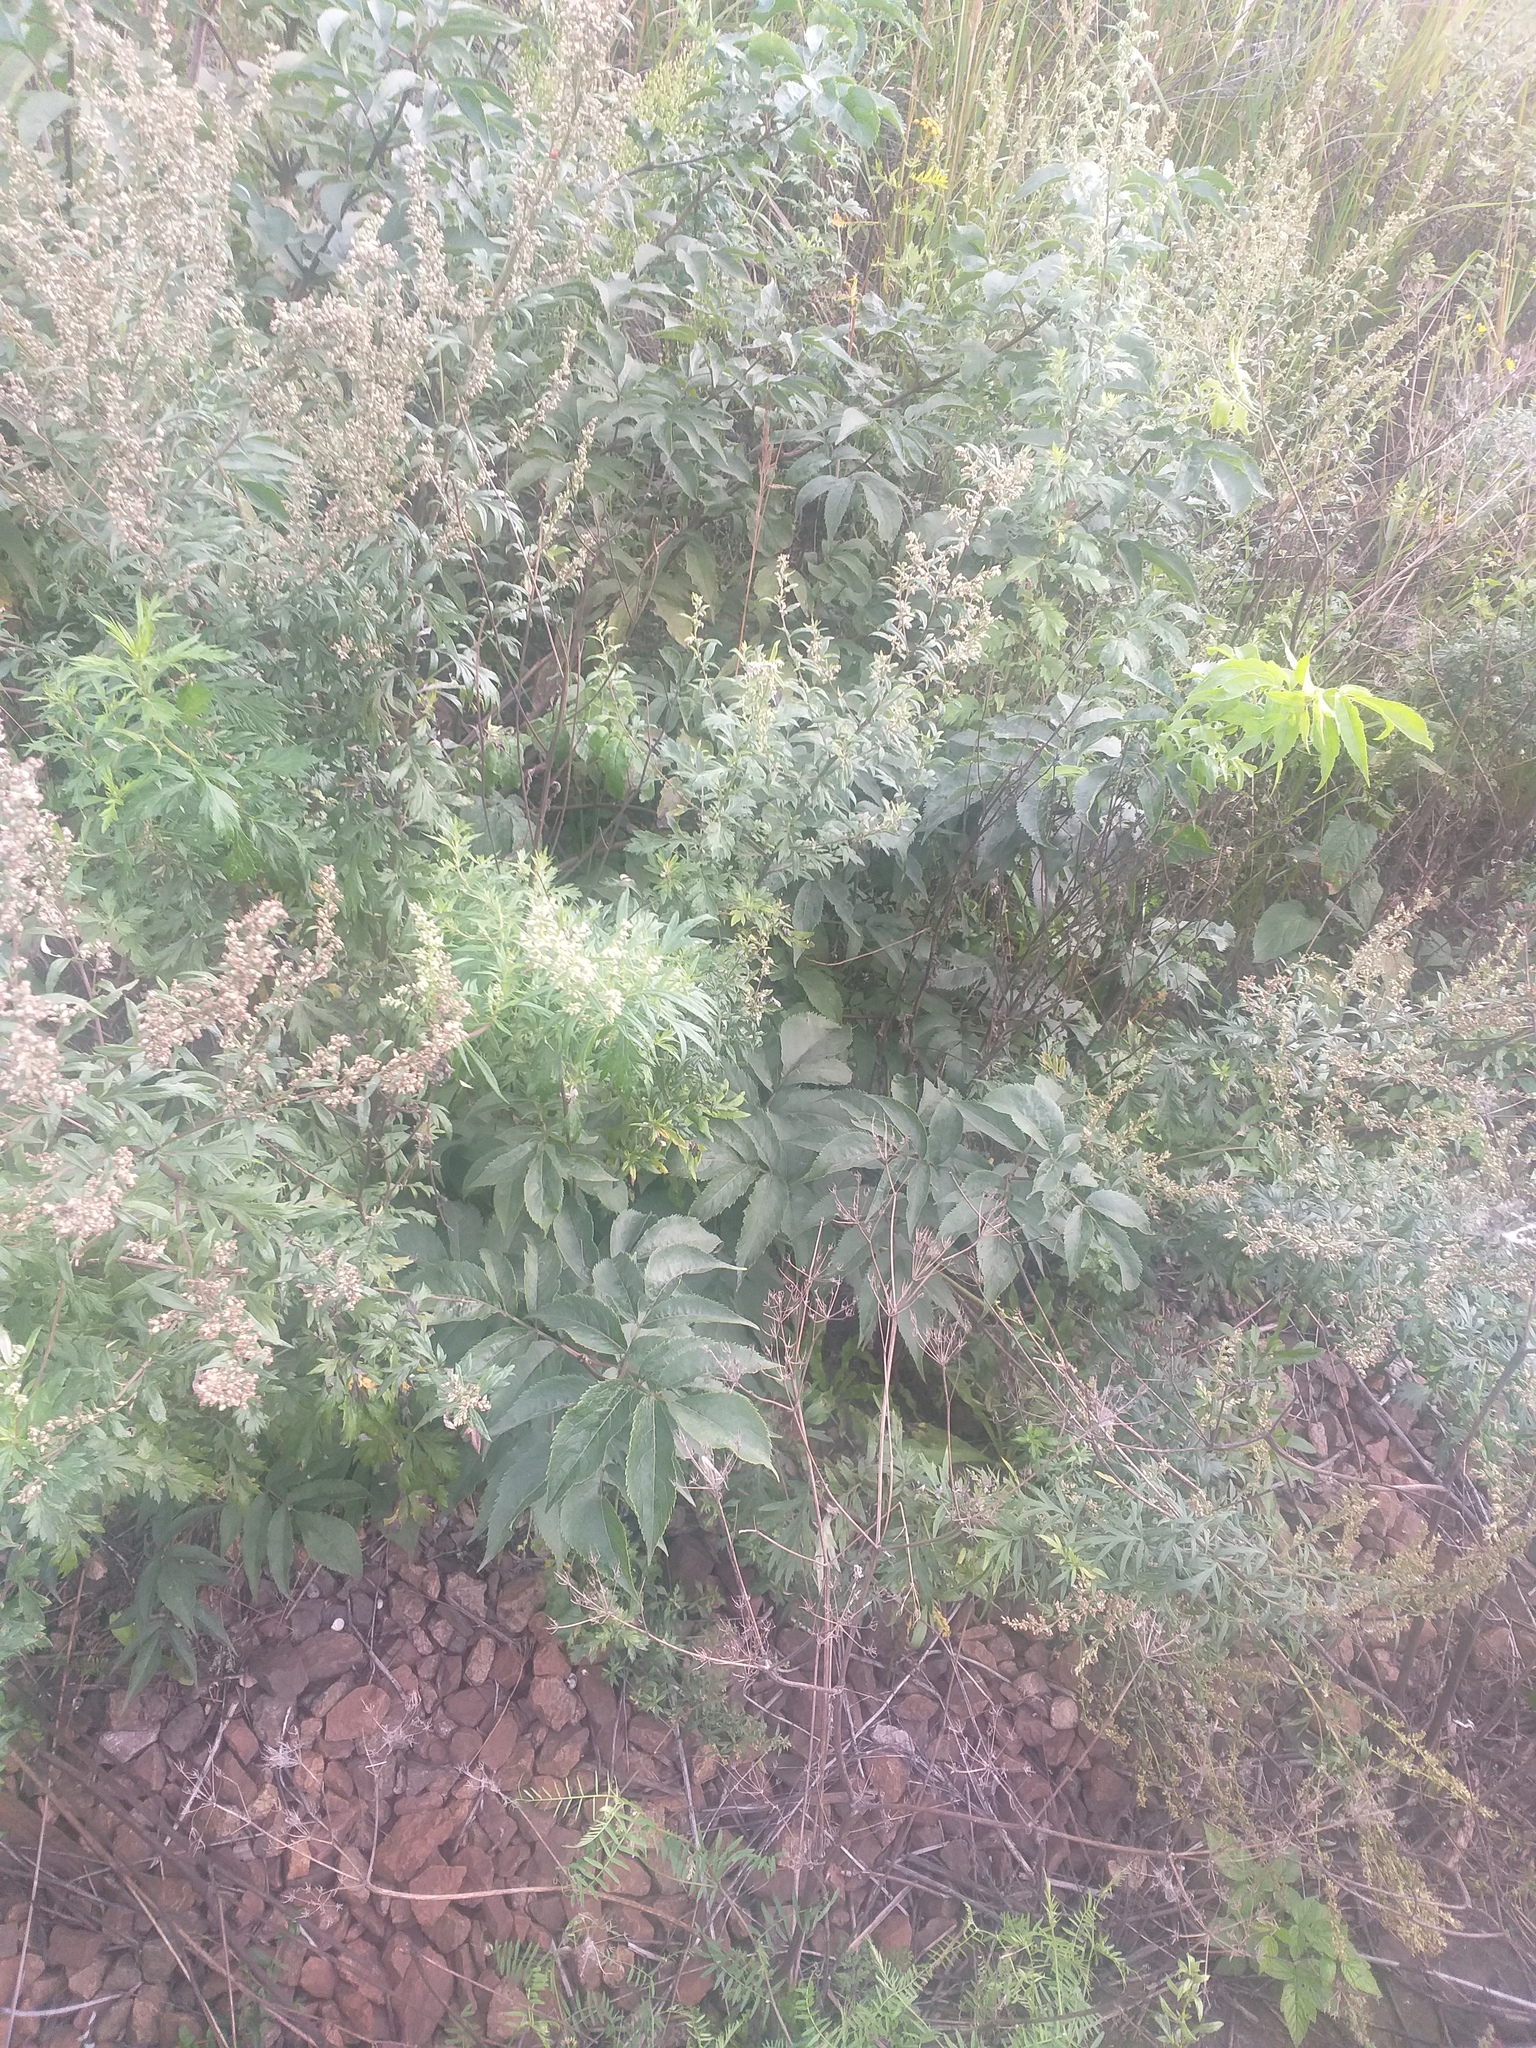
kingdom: Plantae
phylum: Tracheophyta
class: Magnoliopsida
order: Dipsacales
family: Viburnaceae
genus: Sambucus
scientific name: Sambucus racemosa
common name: Red-berried elder
